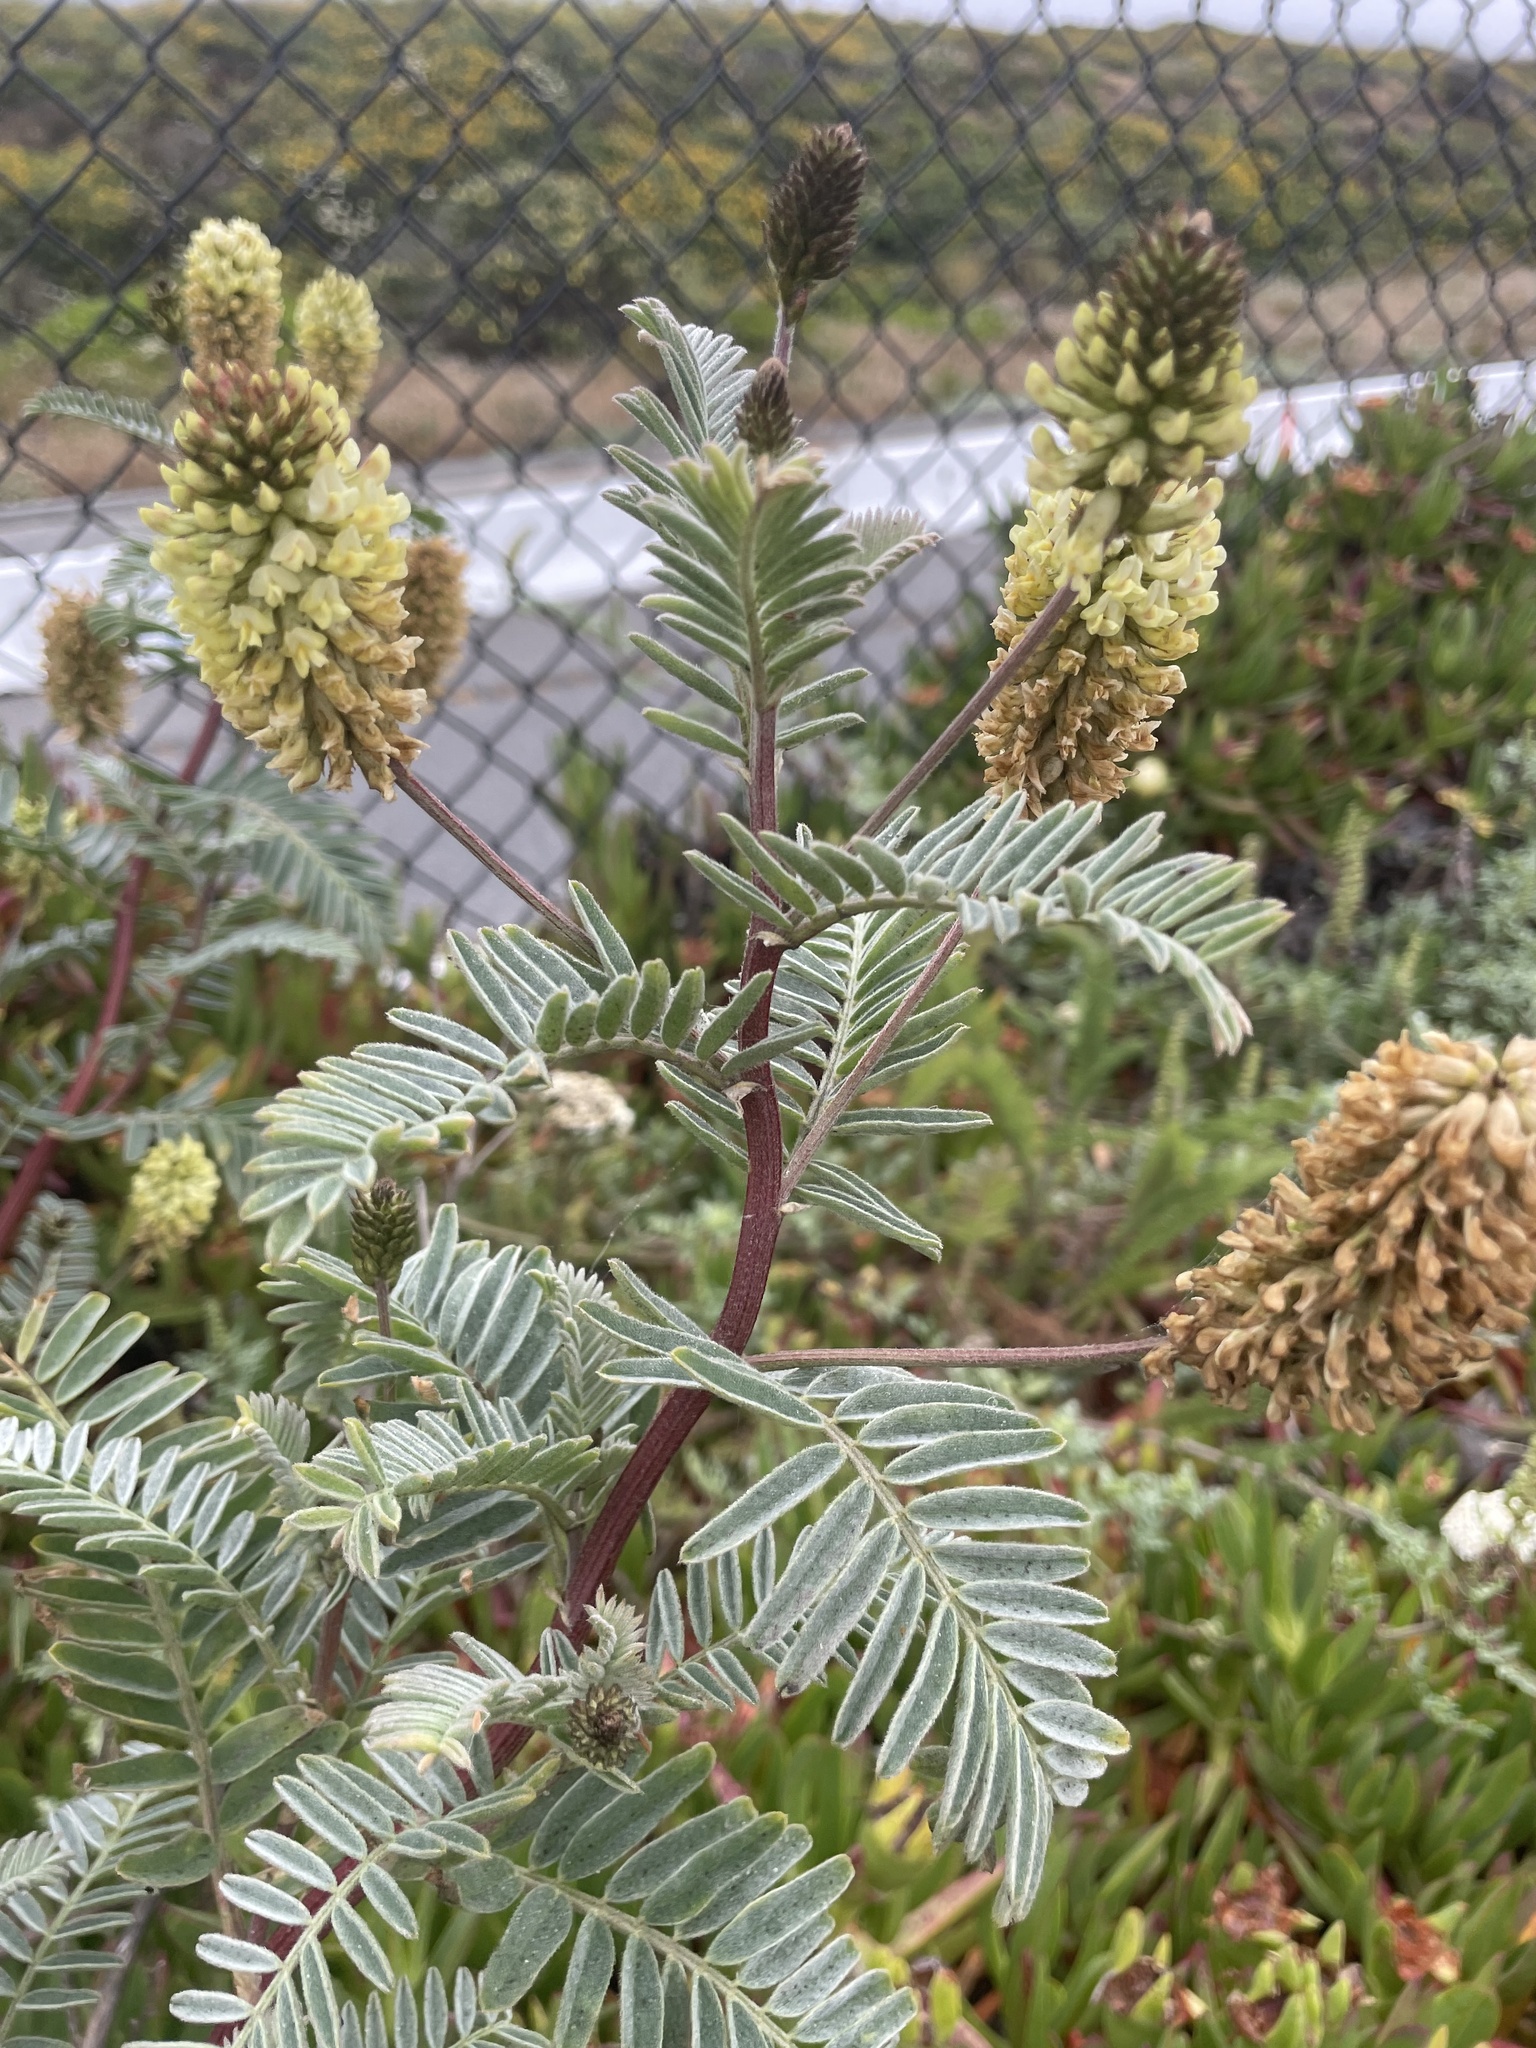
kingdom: Plantae
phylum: Tracheophyta
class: Magnoliopsida
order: Fabales
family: Fabaceae
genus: Astragalus
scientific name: Astragalus pycnostachyus
